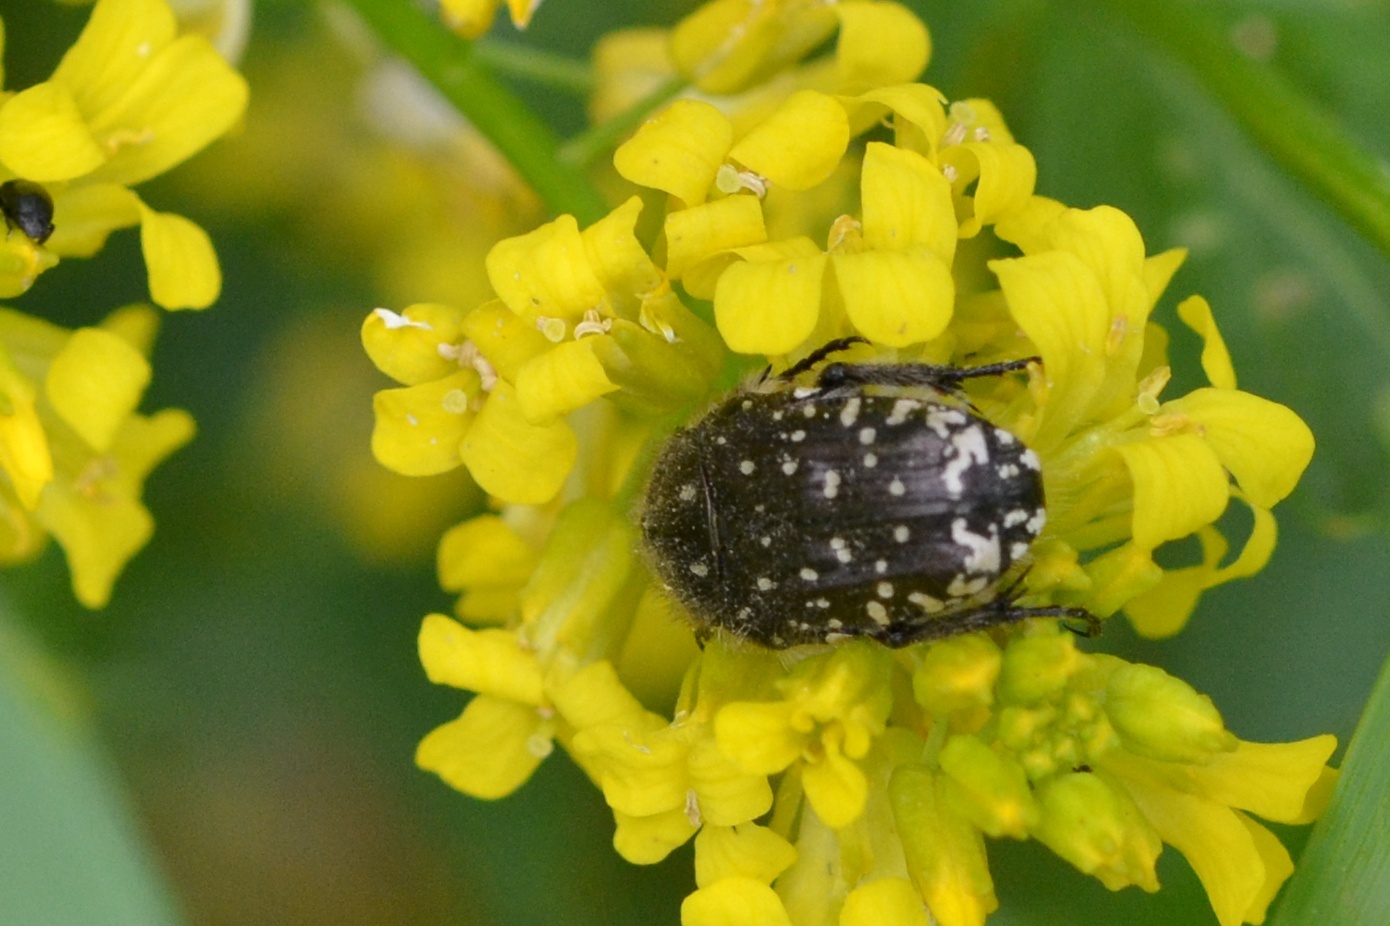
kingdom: Animalia
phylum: Arthropoda
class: Insecta
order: Coleoptera
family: Scarabaeidae
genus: Oxythyrea
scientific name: Oxythyrea funesta
